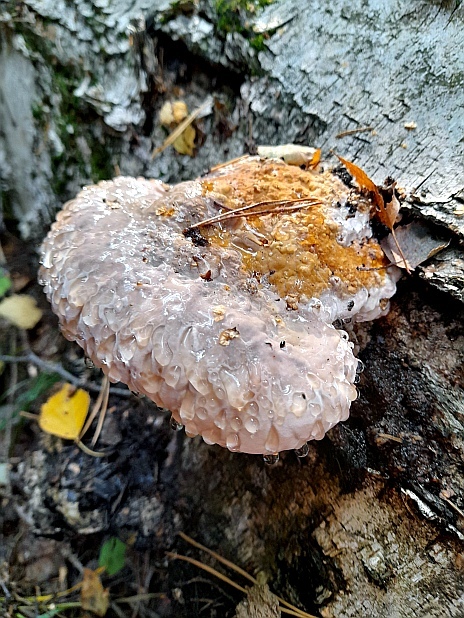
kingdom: Fungi
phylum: Basidiomycota
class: Agaricomycetes
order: Polyporales
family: Fomitopsidaceae
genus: Fomitopsis
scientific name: Fomitopsis pinicola
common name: Red-belted bracket
